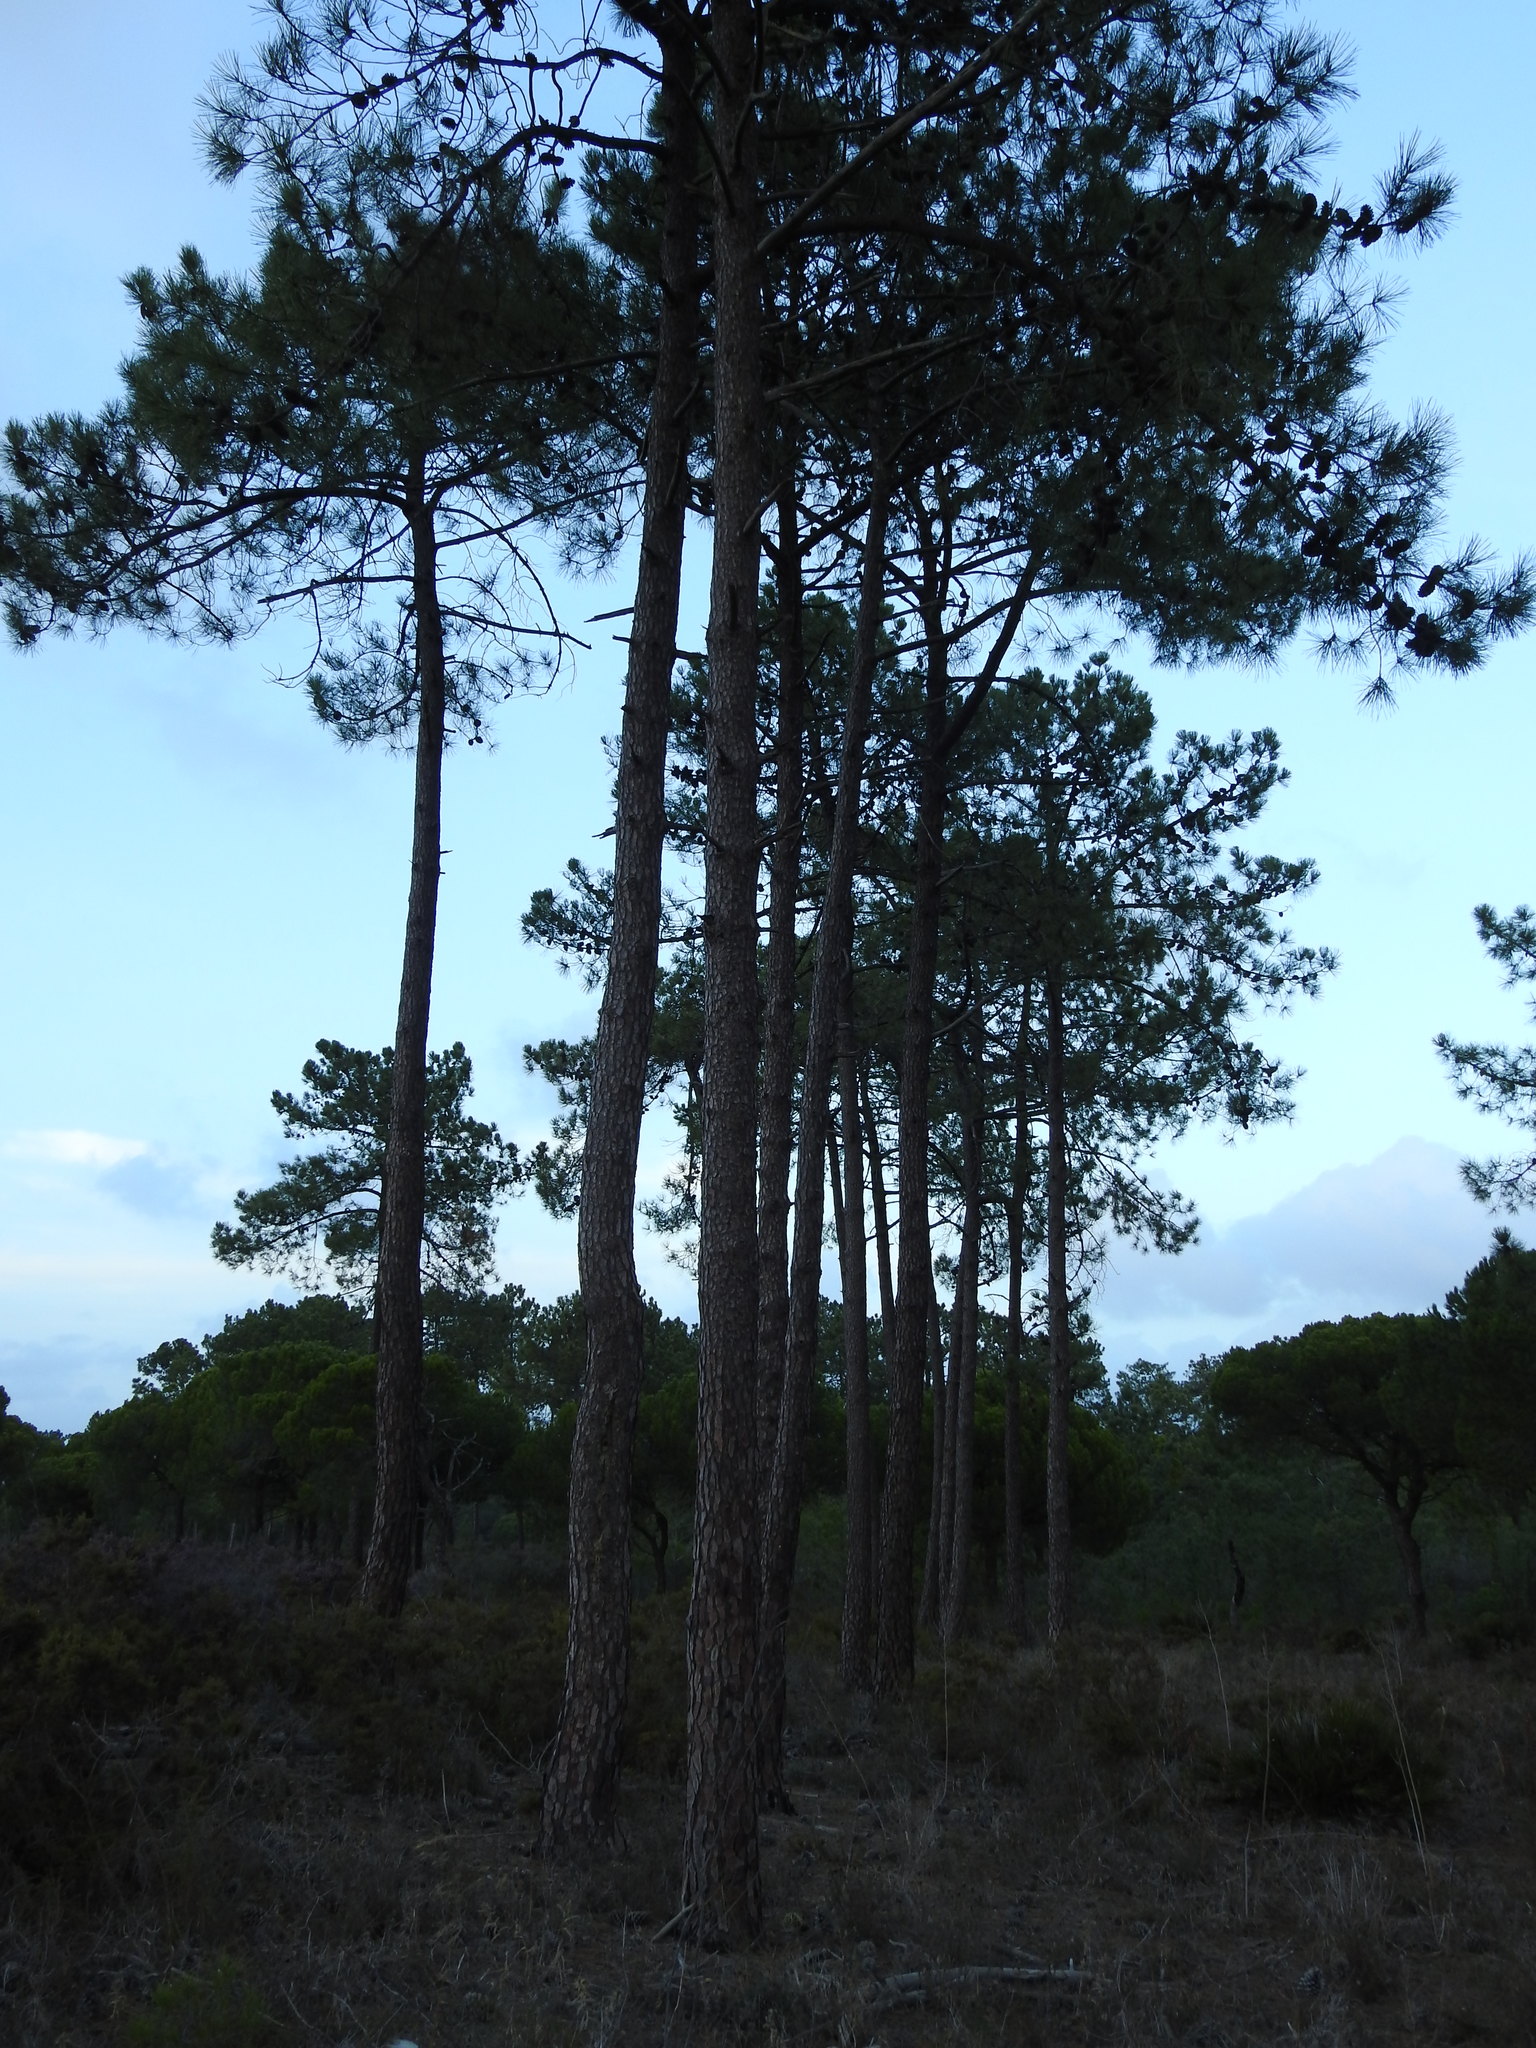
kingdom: Plantae
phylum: Tracheophyta
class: Pinopsida
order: Pinales
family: Pinaceae
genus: Pinus
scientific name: Pinus pinaster
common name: Maritime pine
